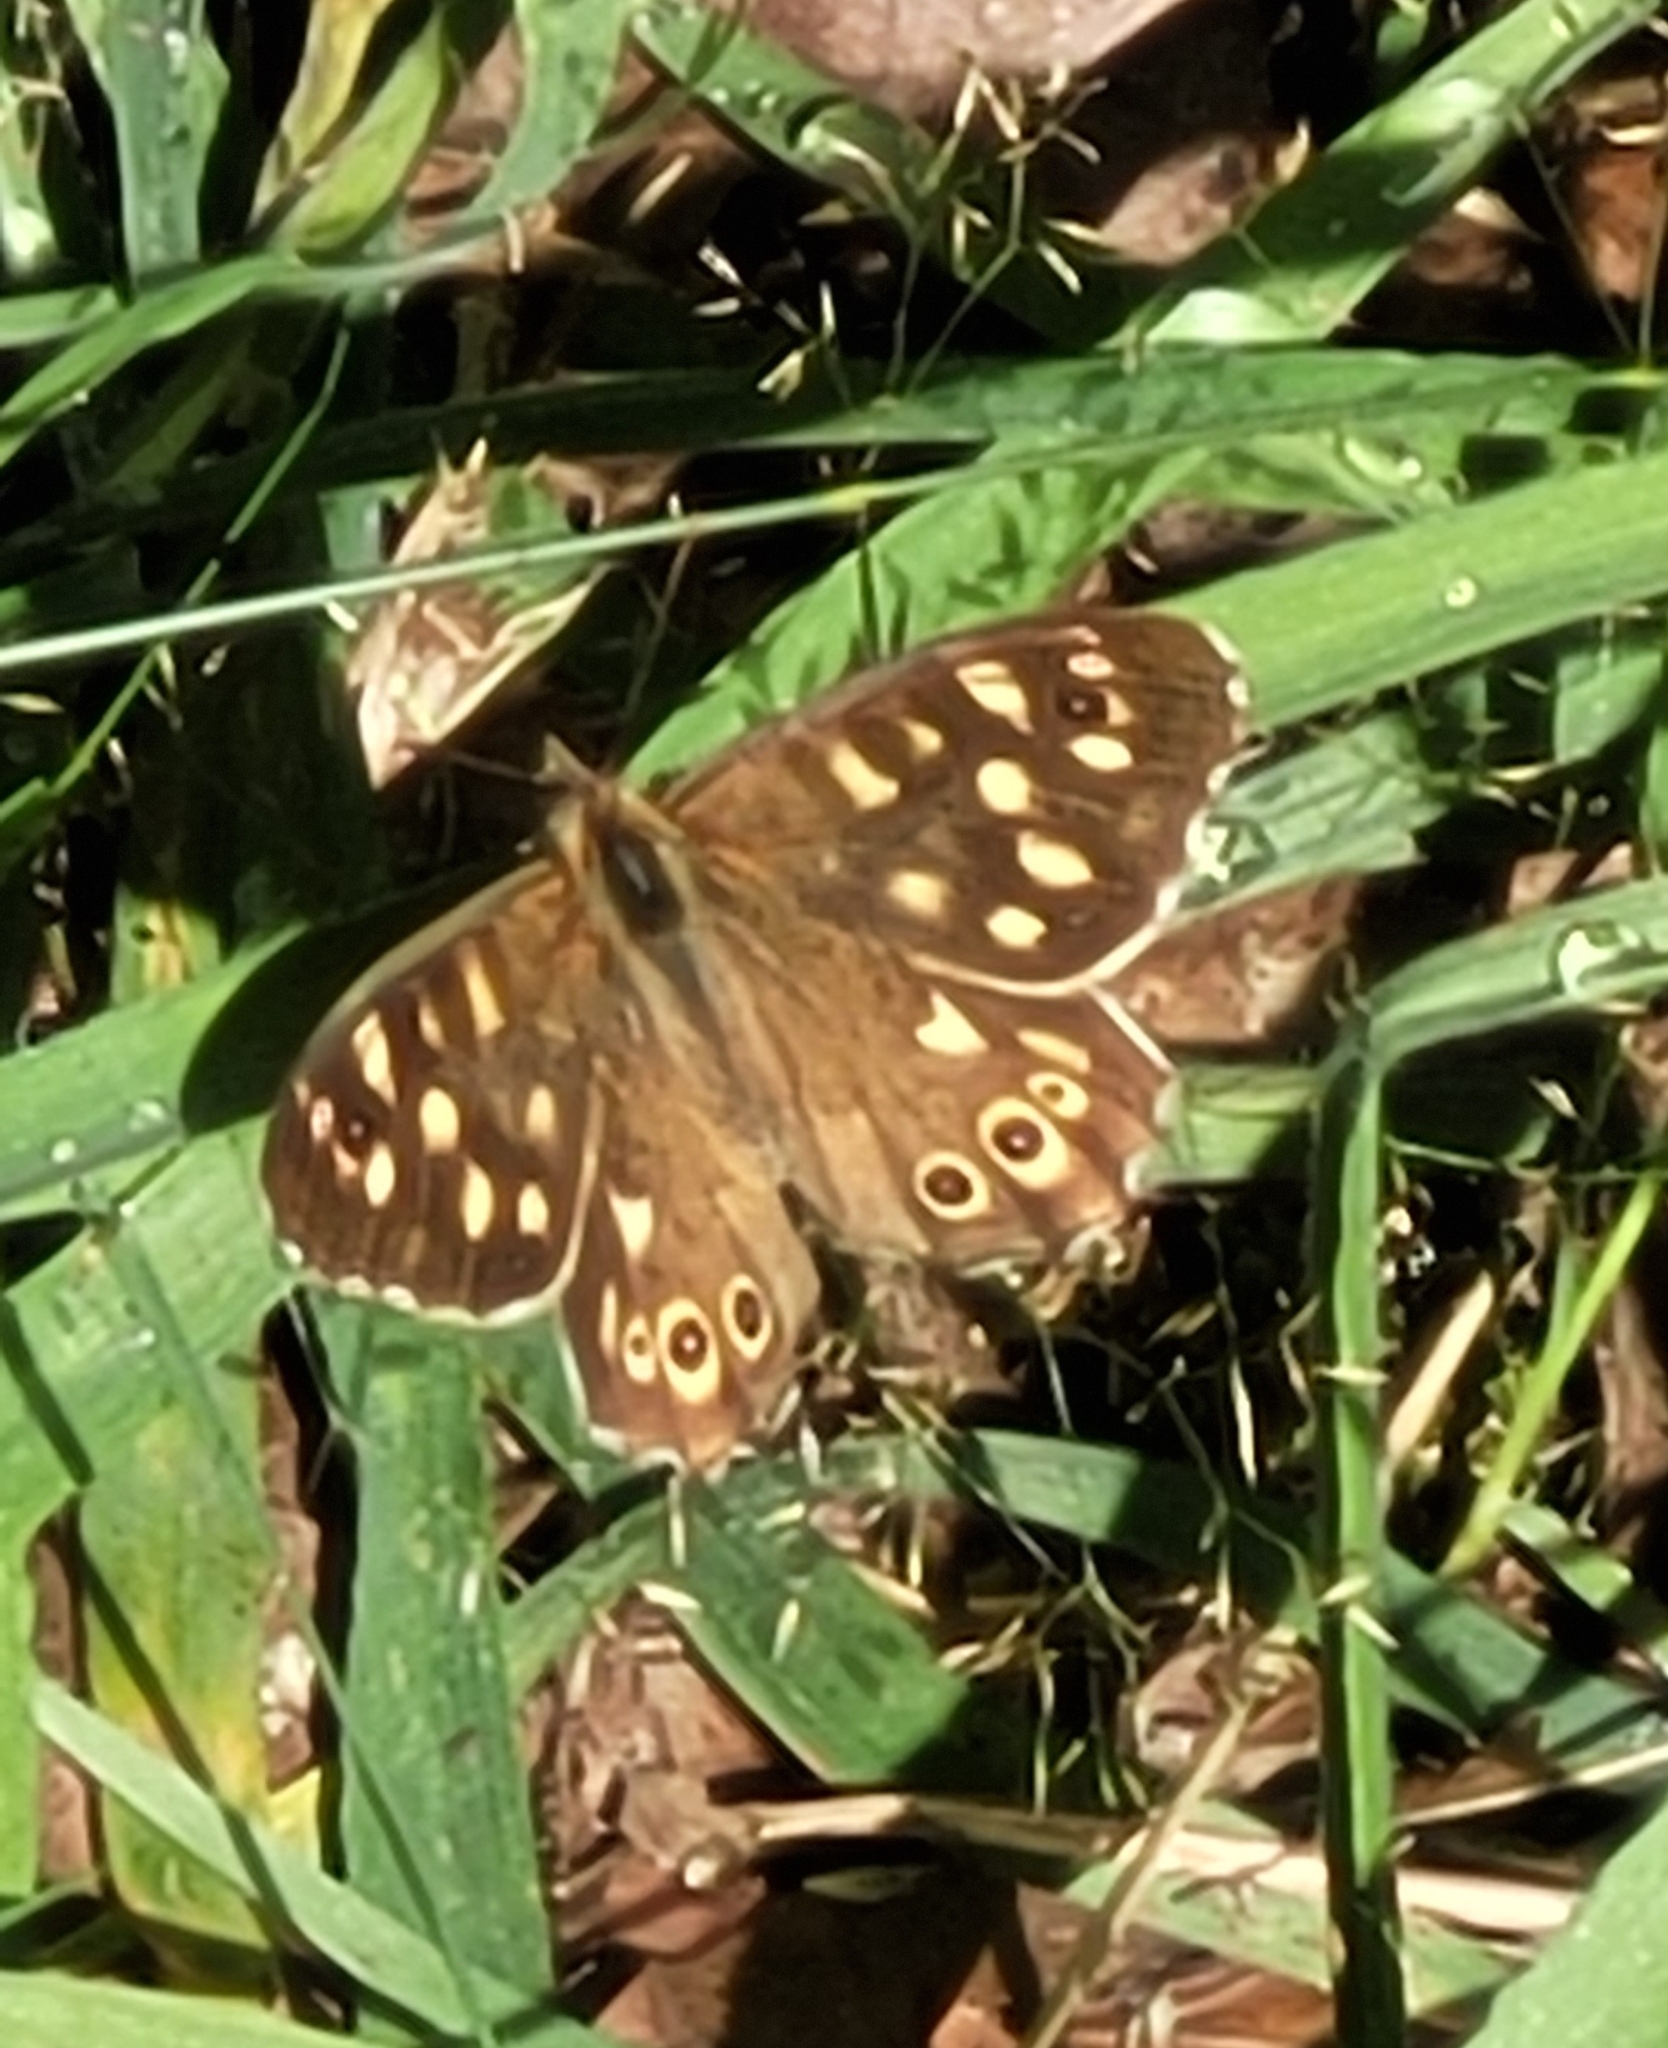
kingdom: Animalia
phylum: Arthropoda
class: Insecta
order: Lepidoptera
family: Nymphalidae
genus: Pararge
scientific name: Pararge aegeria
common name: Speckled wood
